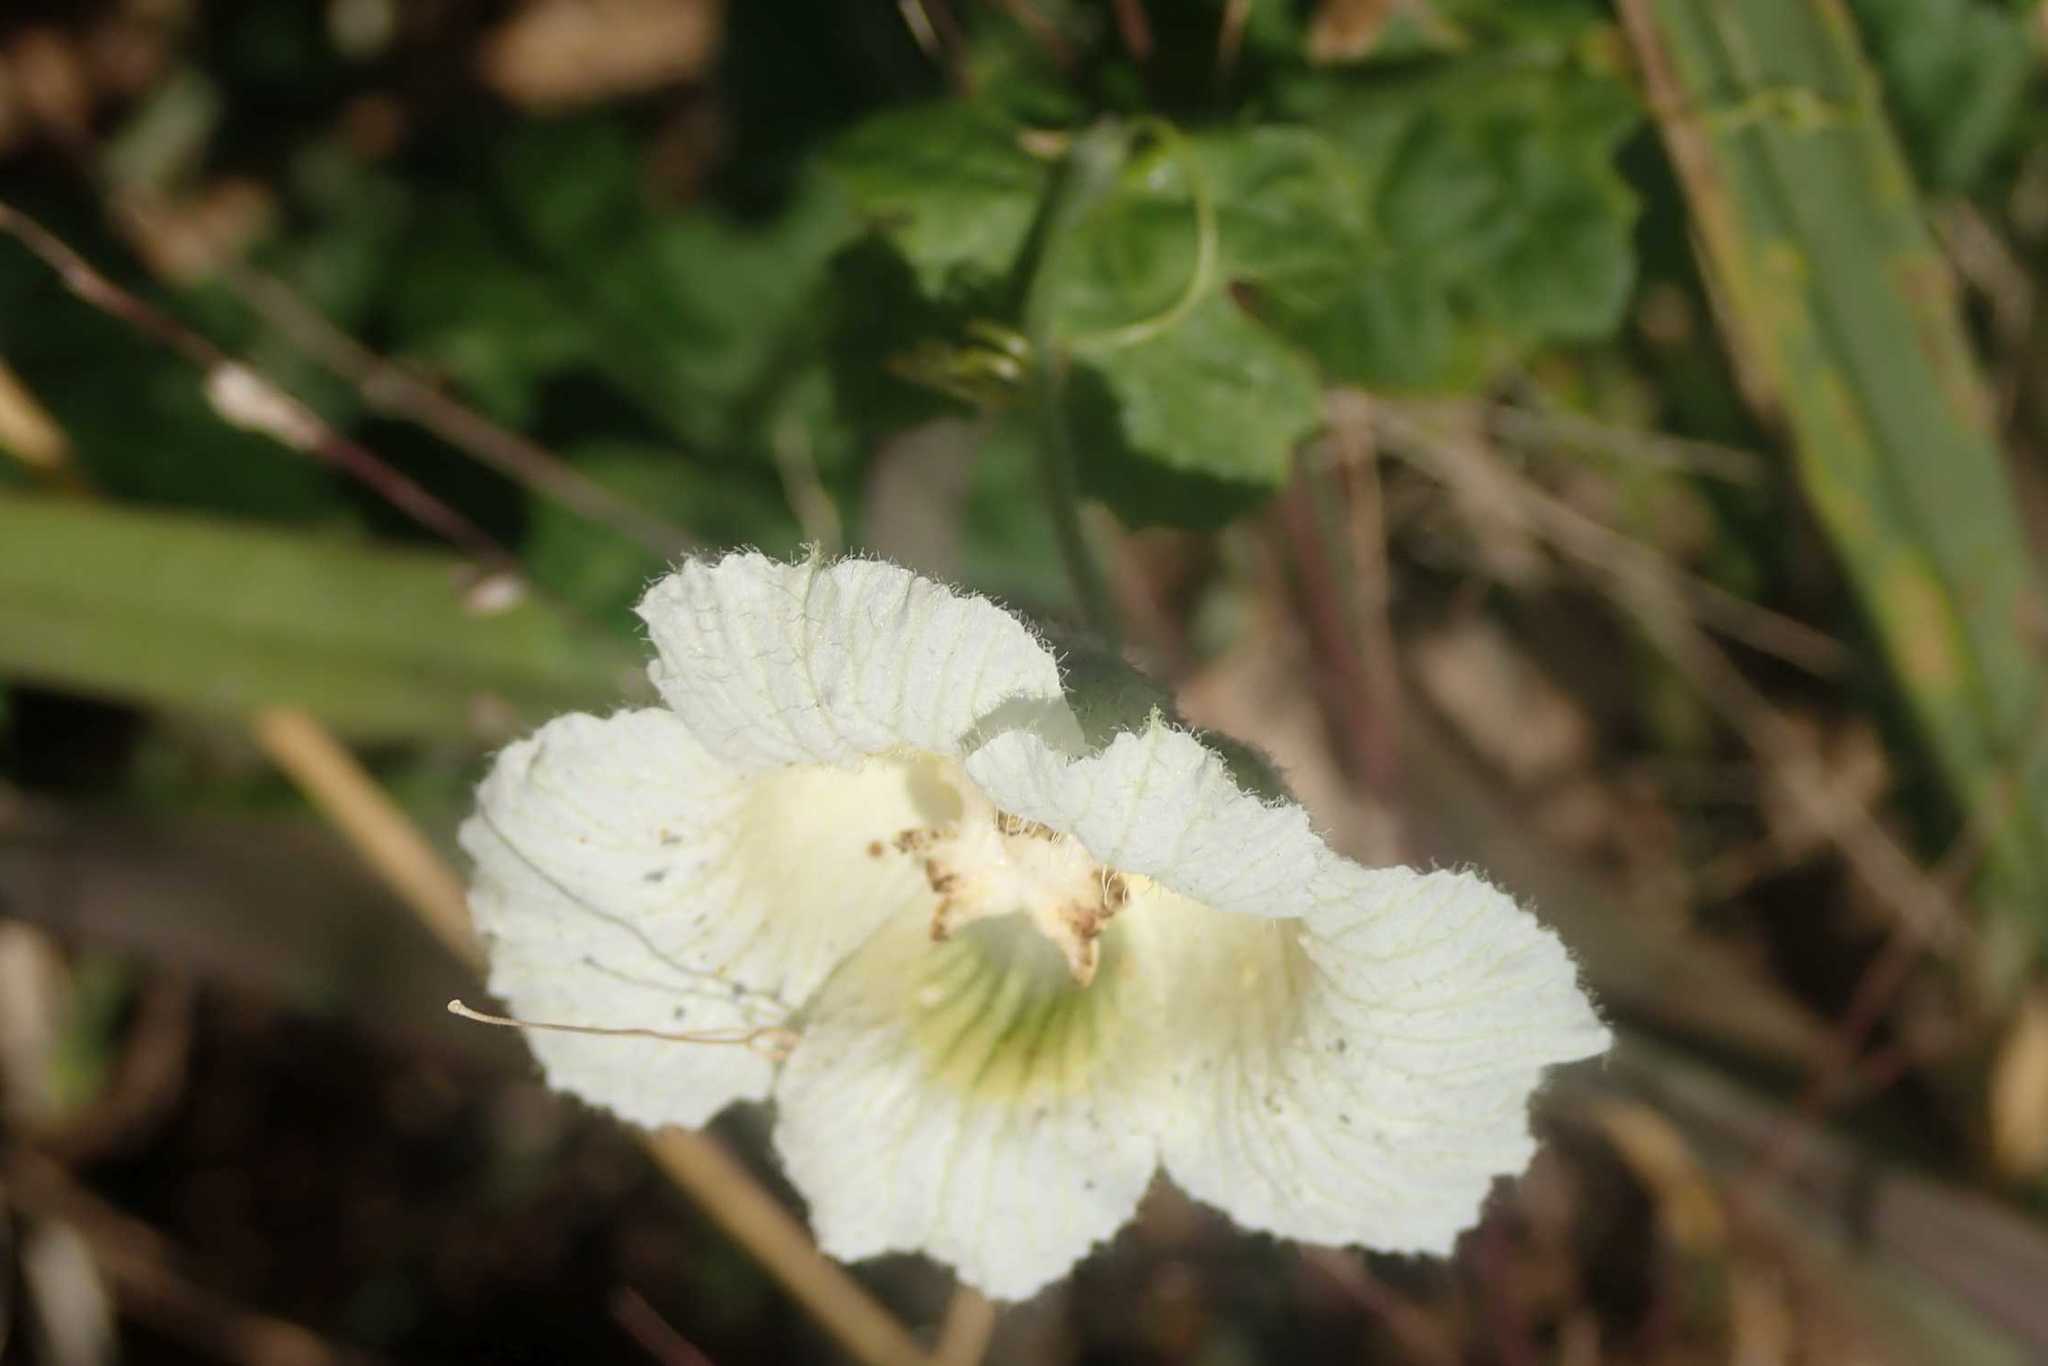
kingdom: Plantae
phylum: Tracheophyta
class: Magnoliopsida
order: Cucurbitales
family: Cucurbitaceae
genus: Momordica
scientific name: Momordica balsamina
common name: Southern balsampear
